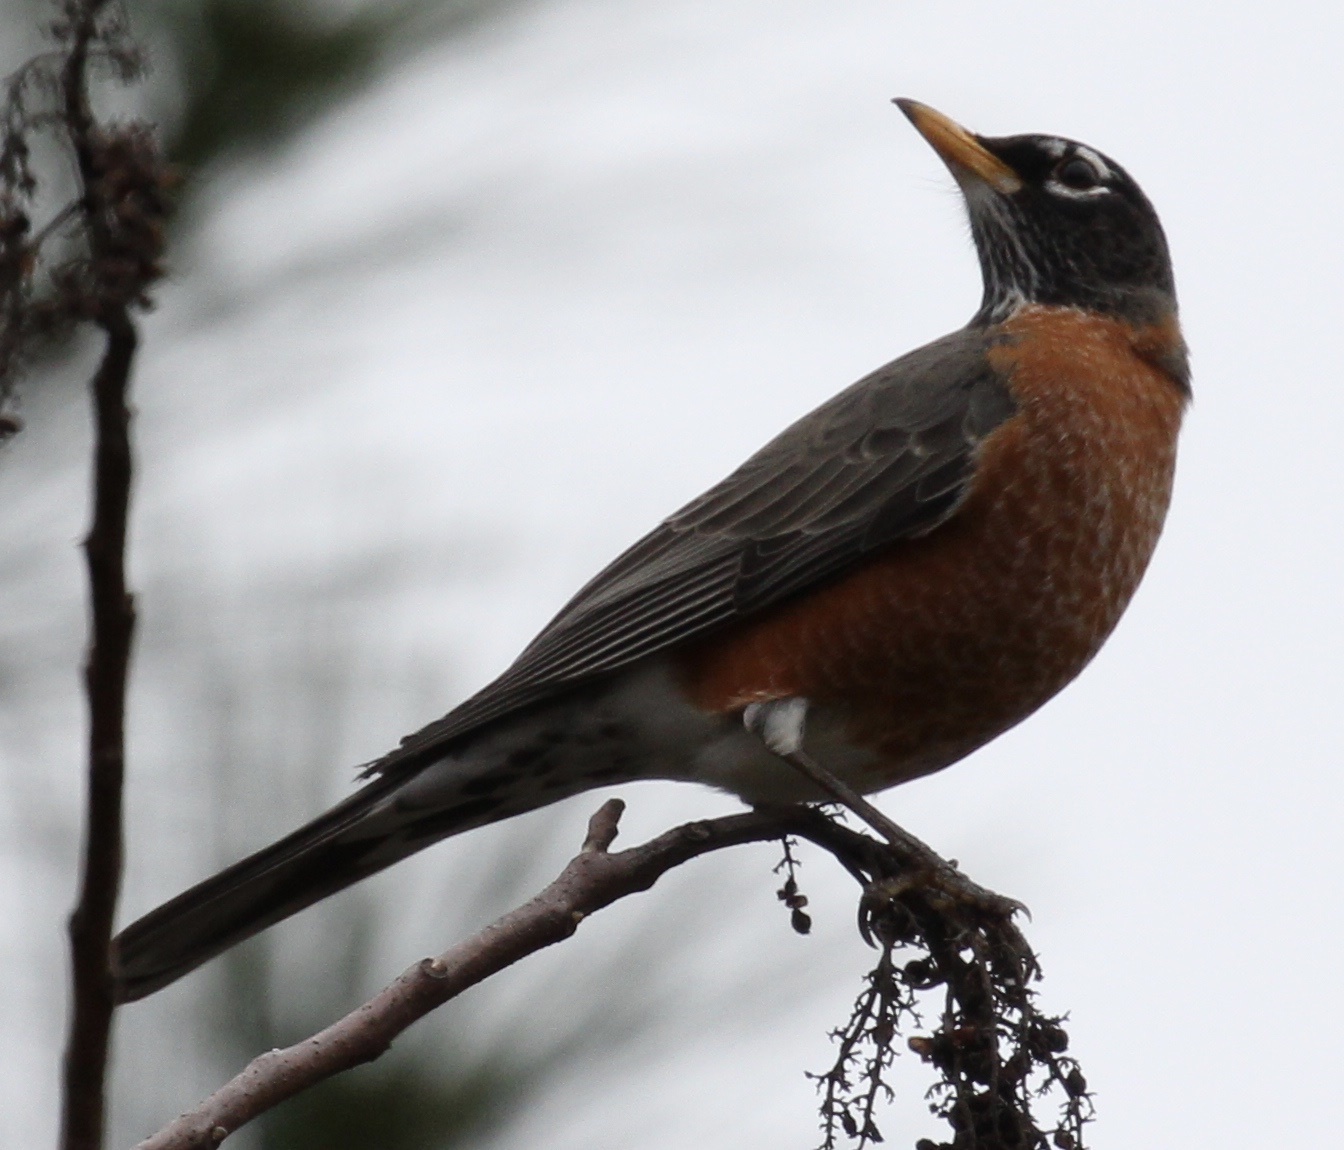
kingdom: Animalia
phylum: Chordata
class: Aves
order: Passeriformes
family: Turdidae
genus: Turdus
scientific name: Turdus migratorius
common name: American robin
